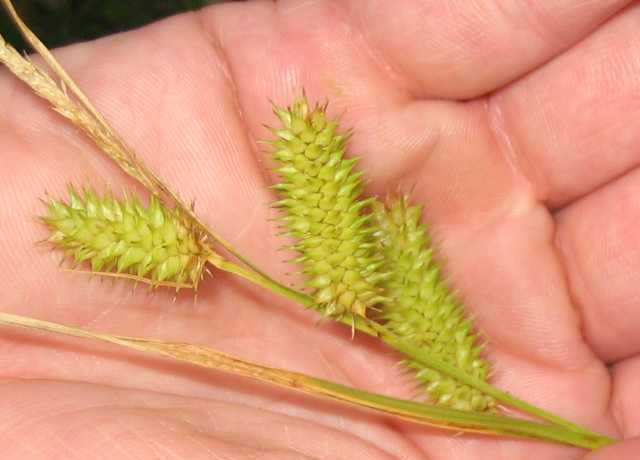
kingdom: Plantae
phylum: Tracheophyta
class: Liliopsida
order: Poales
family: Cyperaceae
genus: Carex
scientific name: Carex hystericina
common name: Bottlebrush sedge
